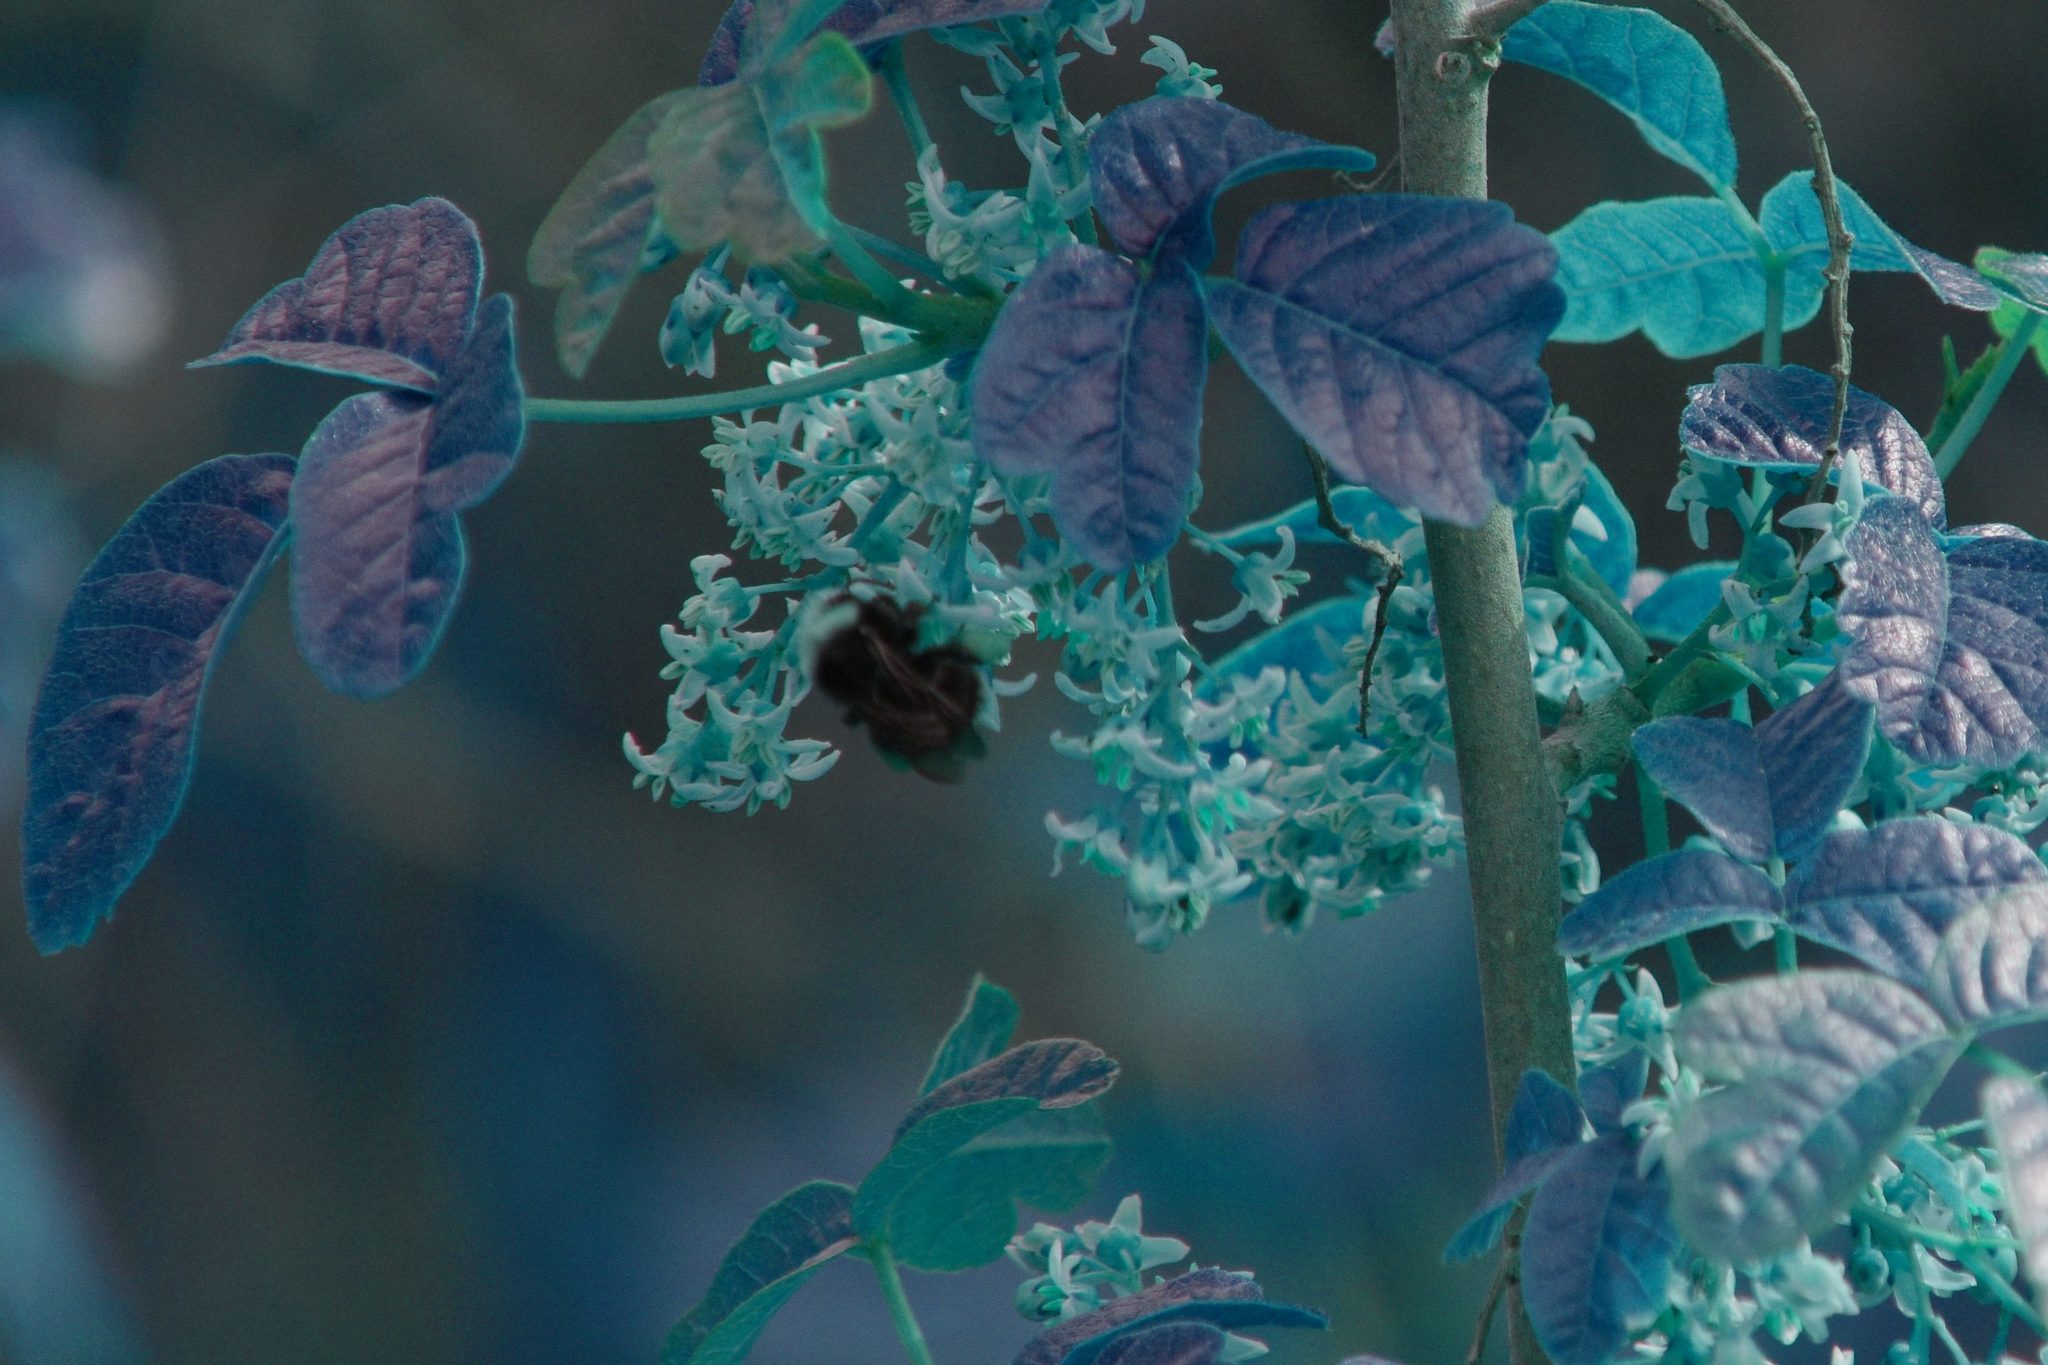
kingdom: Plantae
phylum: Tracheophyta
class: Magnoliopsida
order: Sapindales
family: Anacardiaceae
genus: Toxicodendron
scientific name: Toxicodendron diversilobum
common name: Pacific poison-oak
